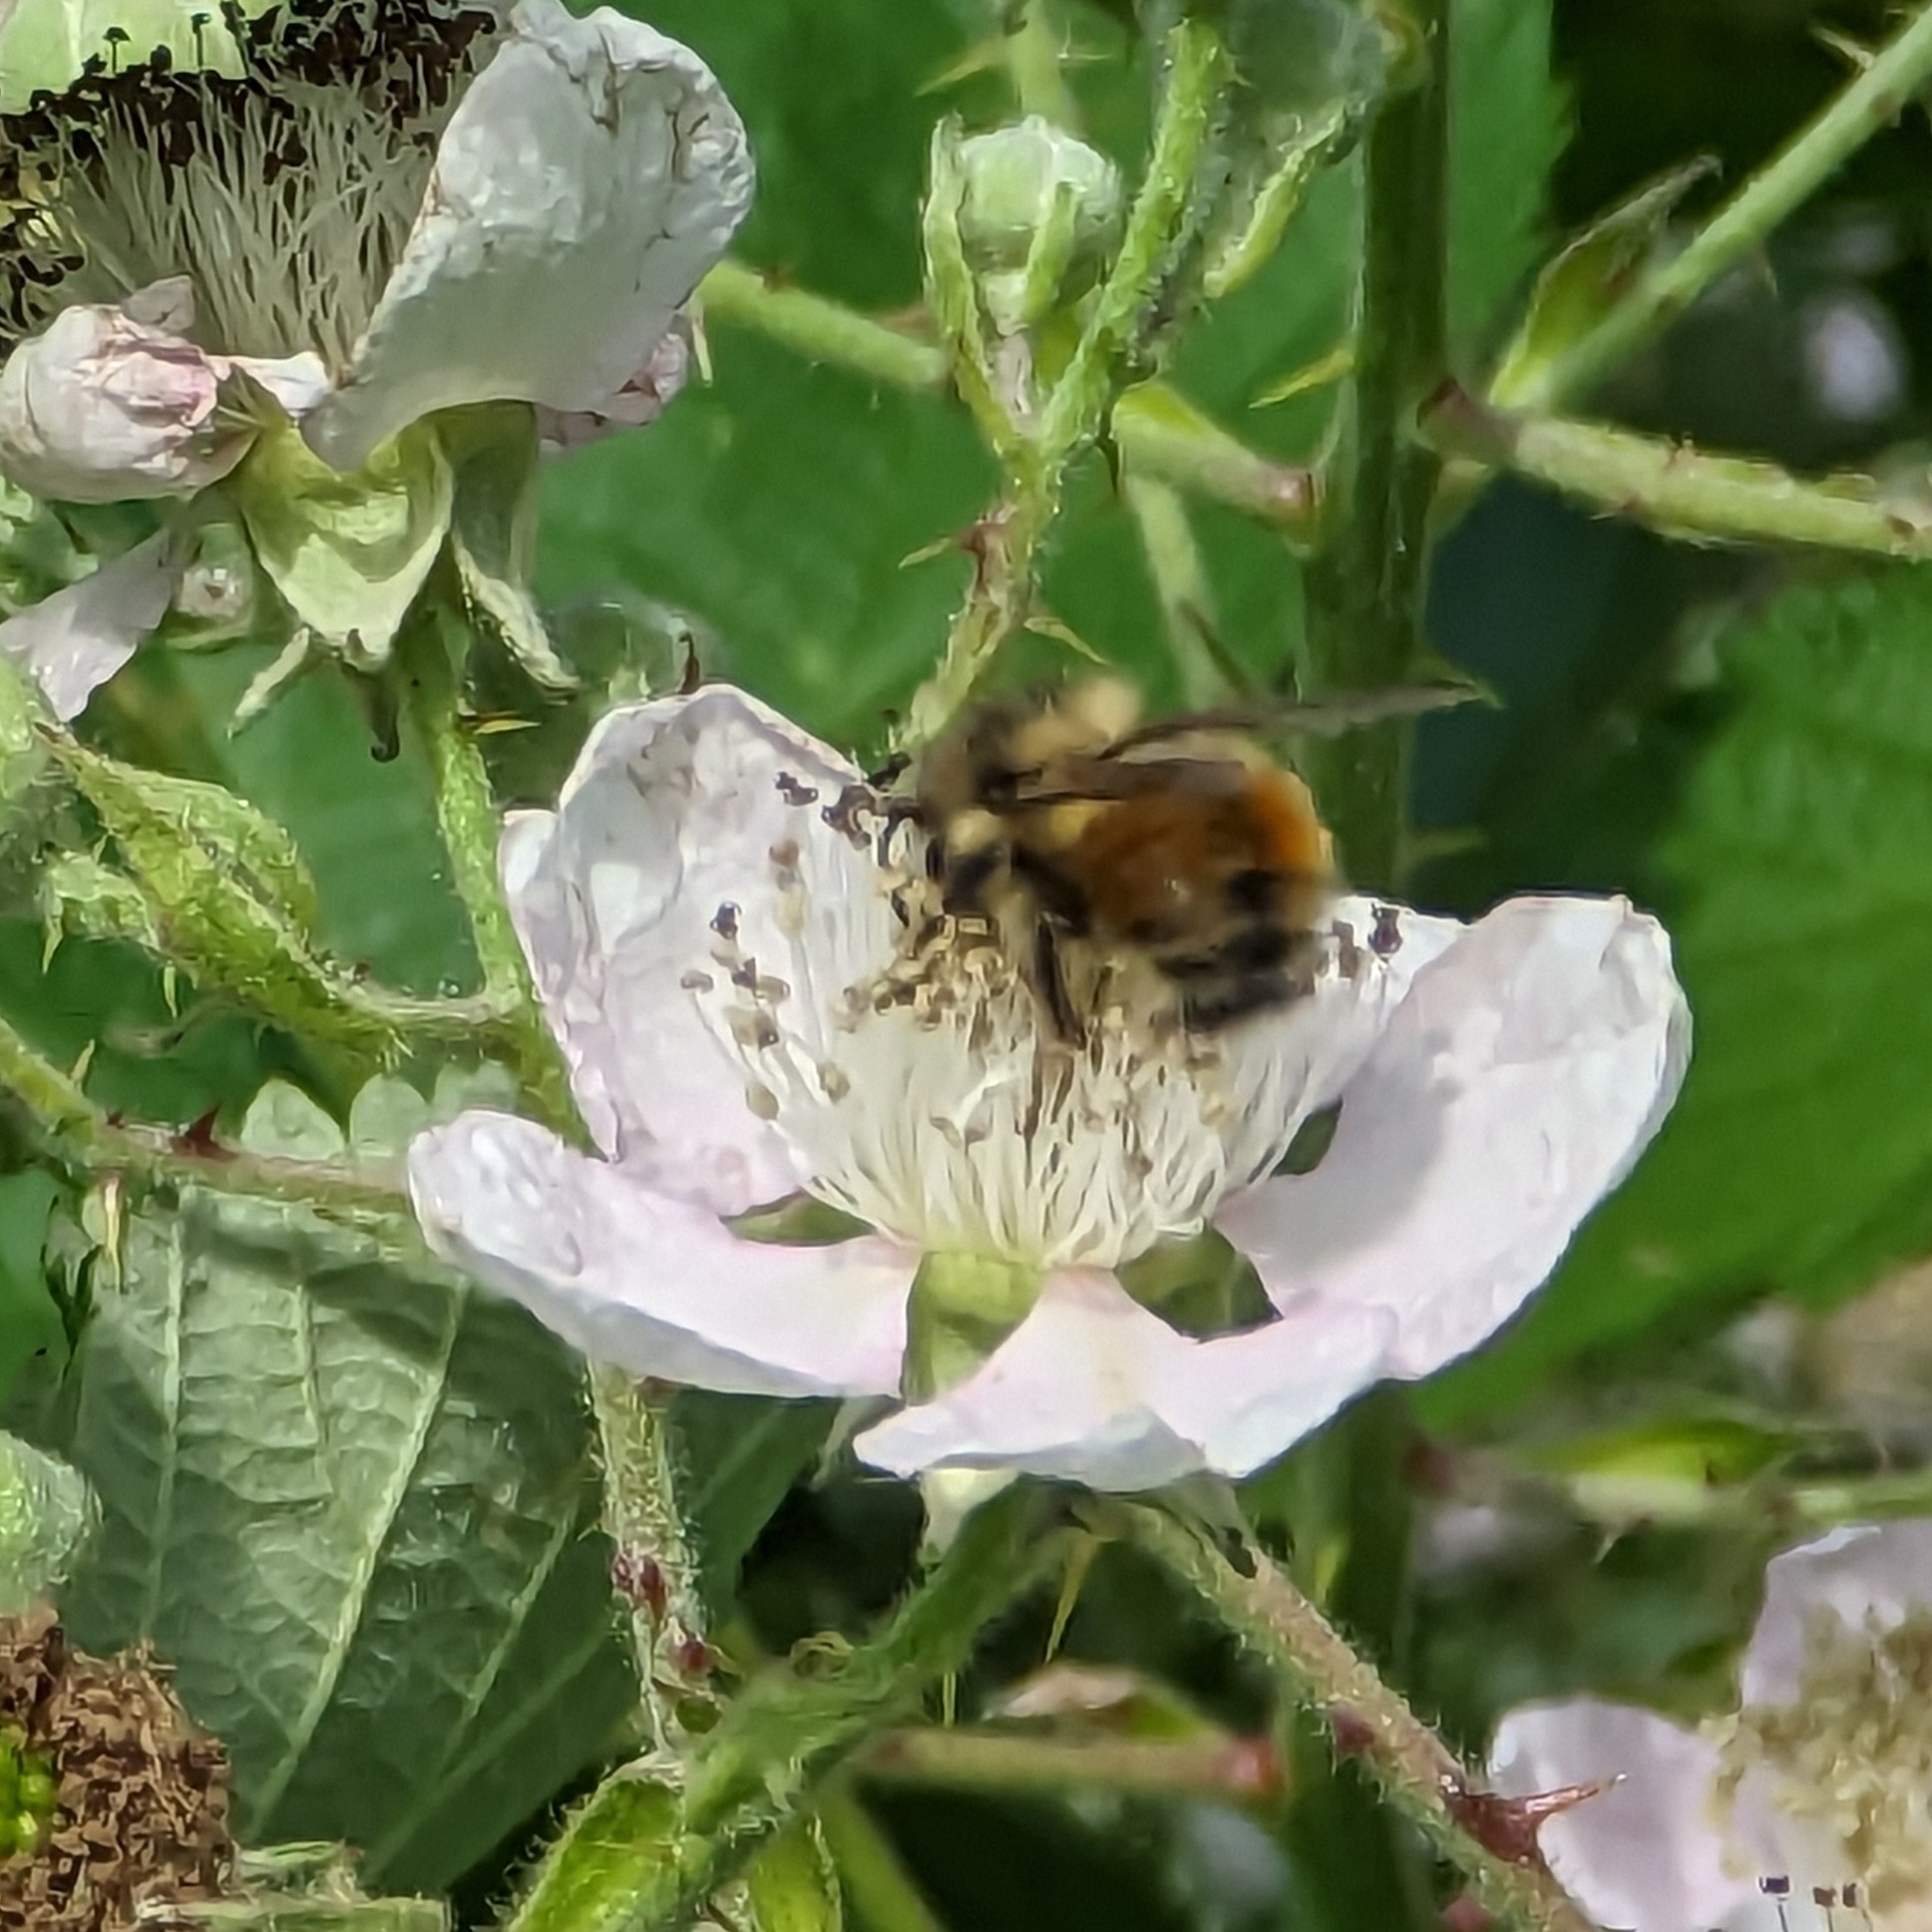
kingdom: Animalia
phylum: Arthropoda
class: Insecta
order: Hymenoptera
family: Apidae
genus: Bombus
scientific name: Bombus melanopygus
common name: Black tail bumble bee
